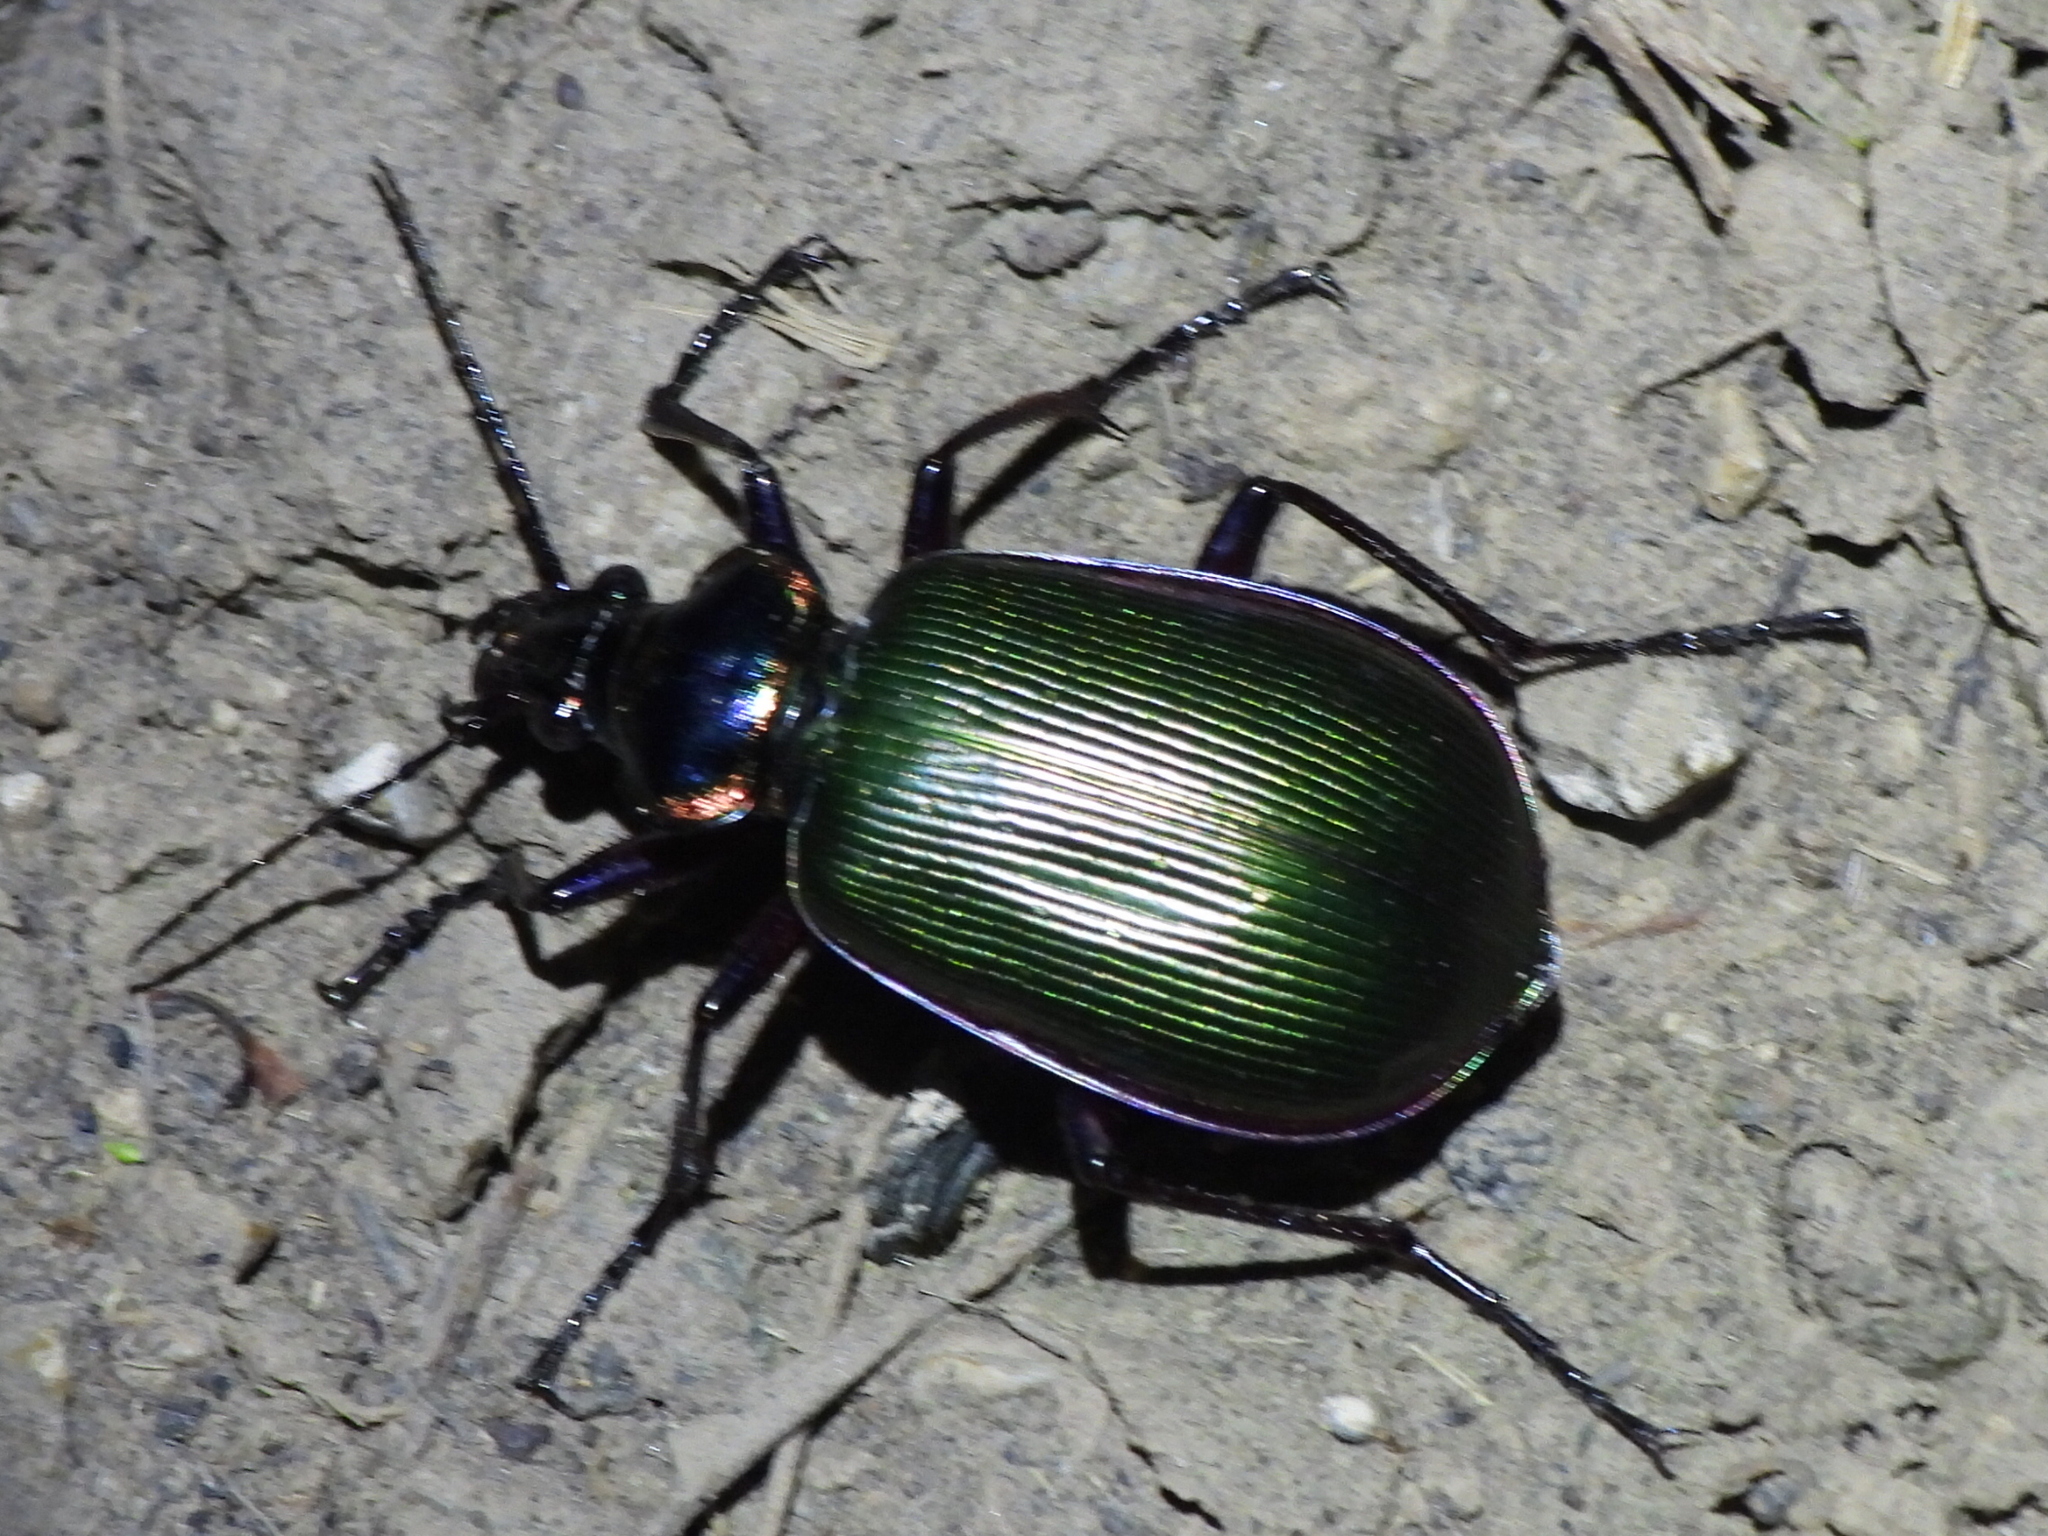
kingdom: Animalia
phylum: Arthropoda
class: Insecta
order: Coleoptera
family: Carabidae
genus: Calosoma
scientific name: Calosoma scrutator
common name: Fiery searcher beetle
